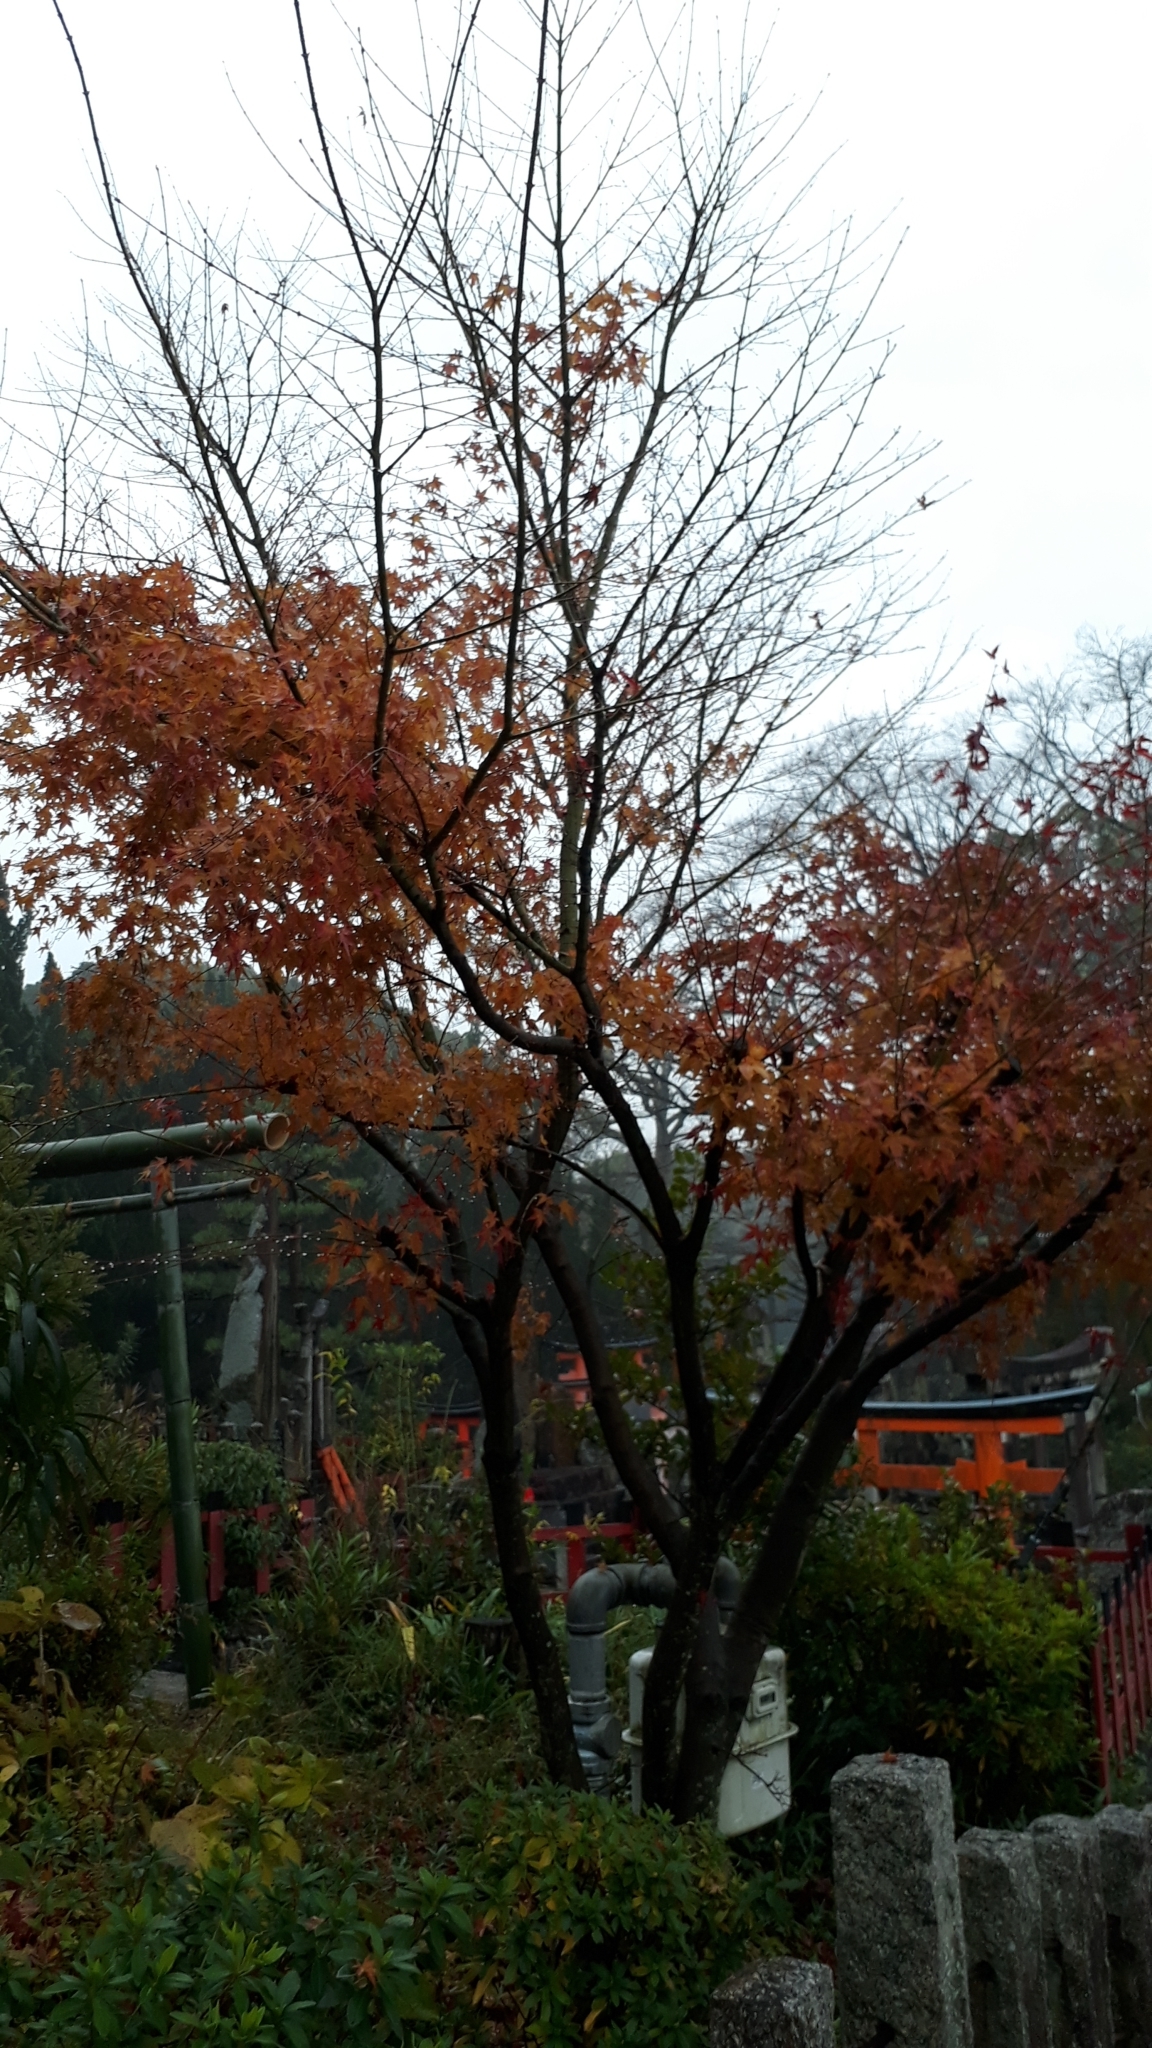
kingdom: Plantae
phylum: Tracheophyta
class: Magnoliopsida
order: Sapindales
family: Sapindaceae
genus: Acer
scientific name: Acer palmatum
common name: Japanese maple
